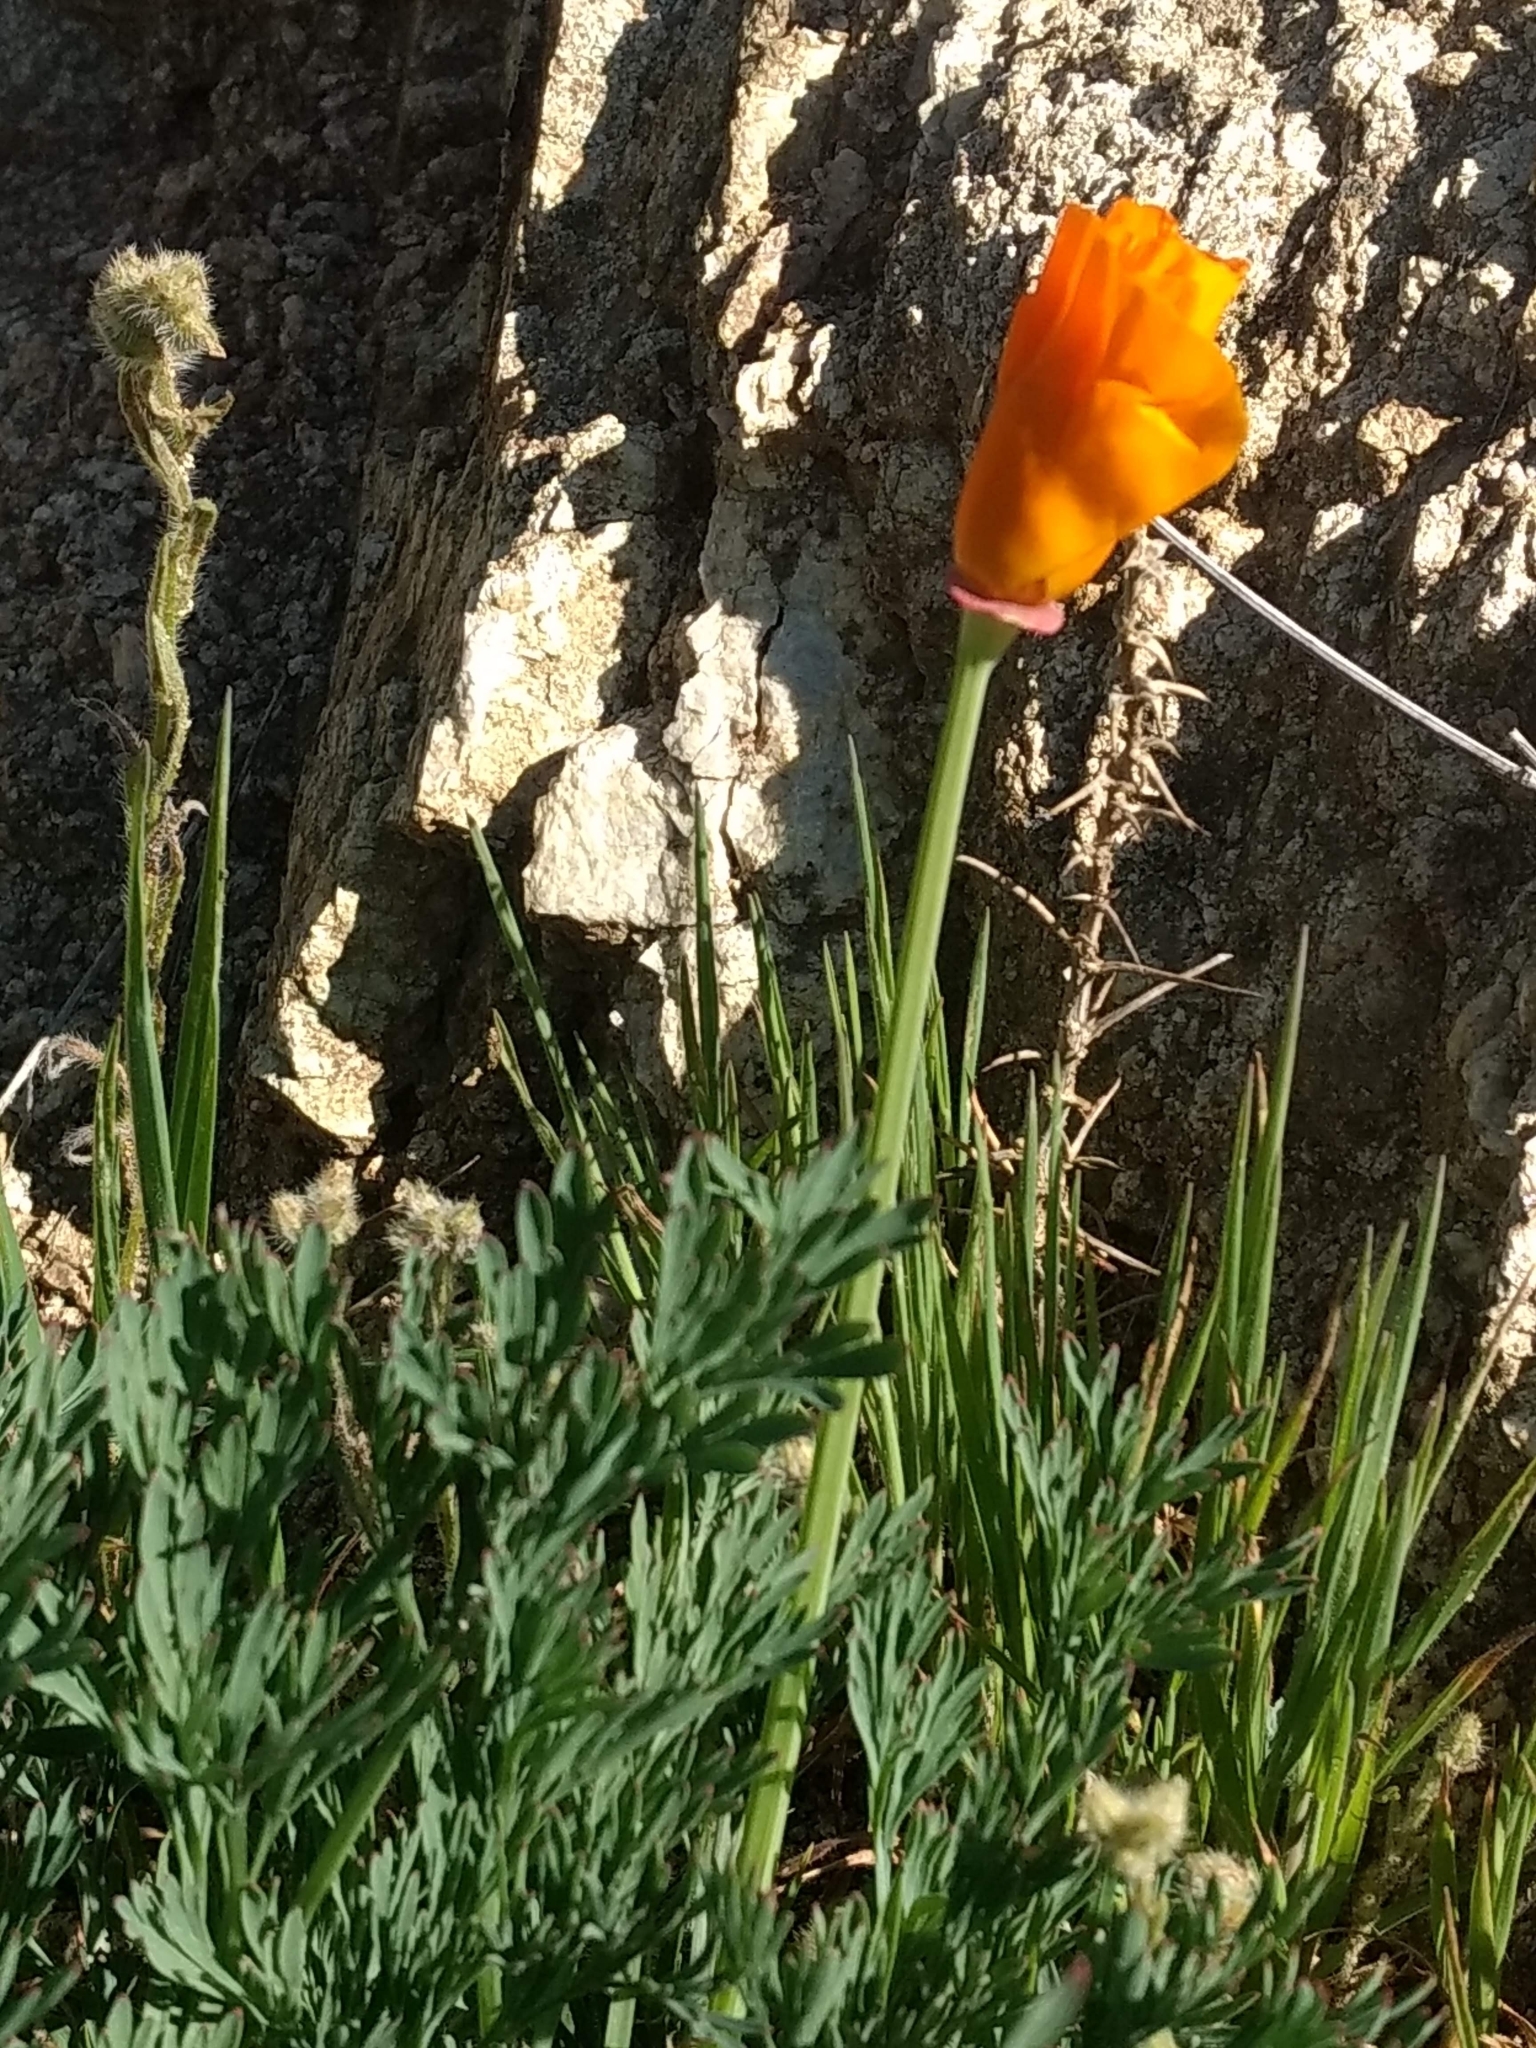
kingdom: Plantae
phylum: Tracheophyta
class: Magnoliopsida
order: Ranunculales
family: Papaveraceae
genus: Eschscholzia
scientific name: Eschscholzia californica
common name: California poppy
